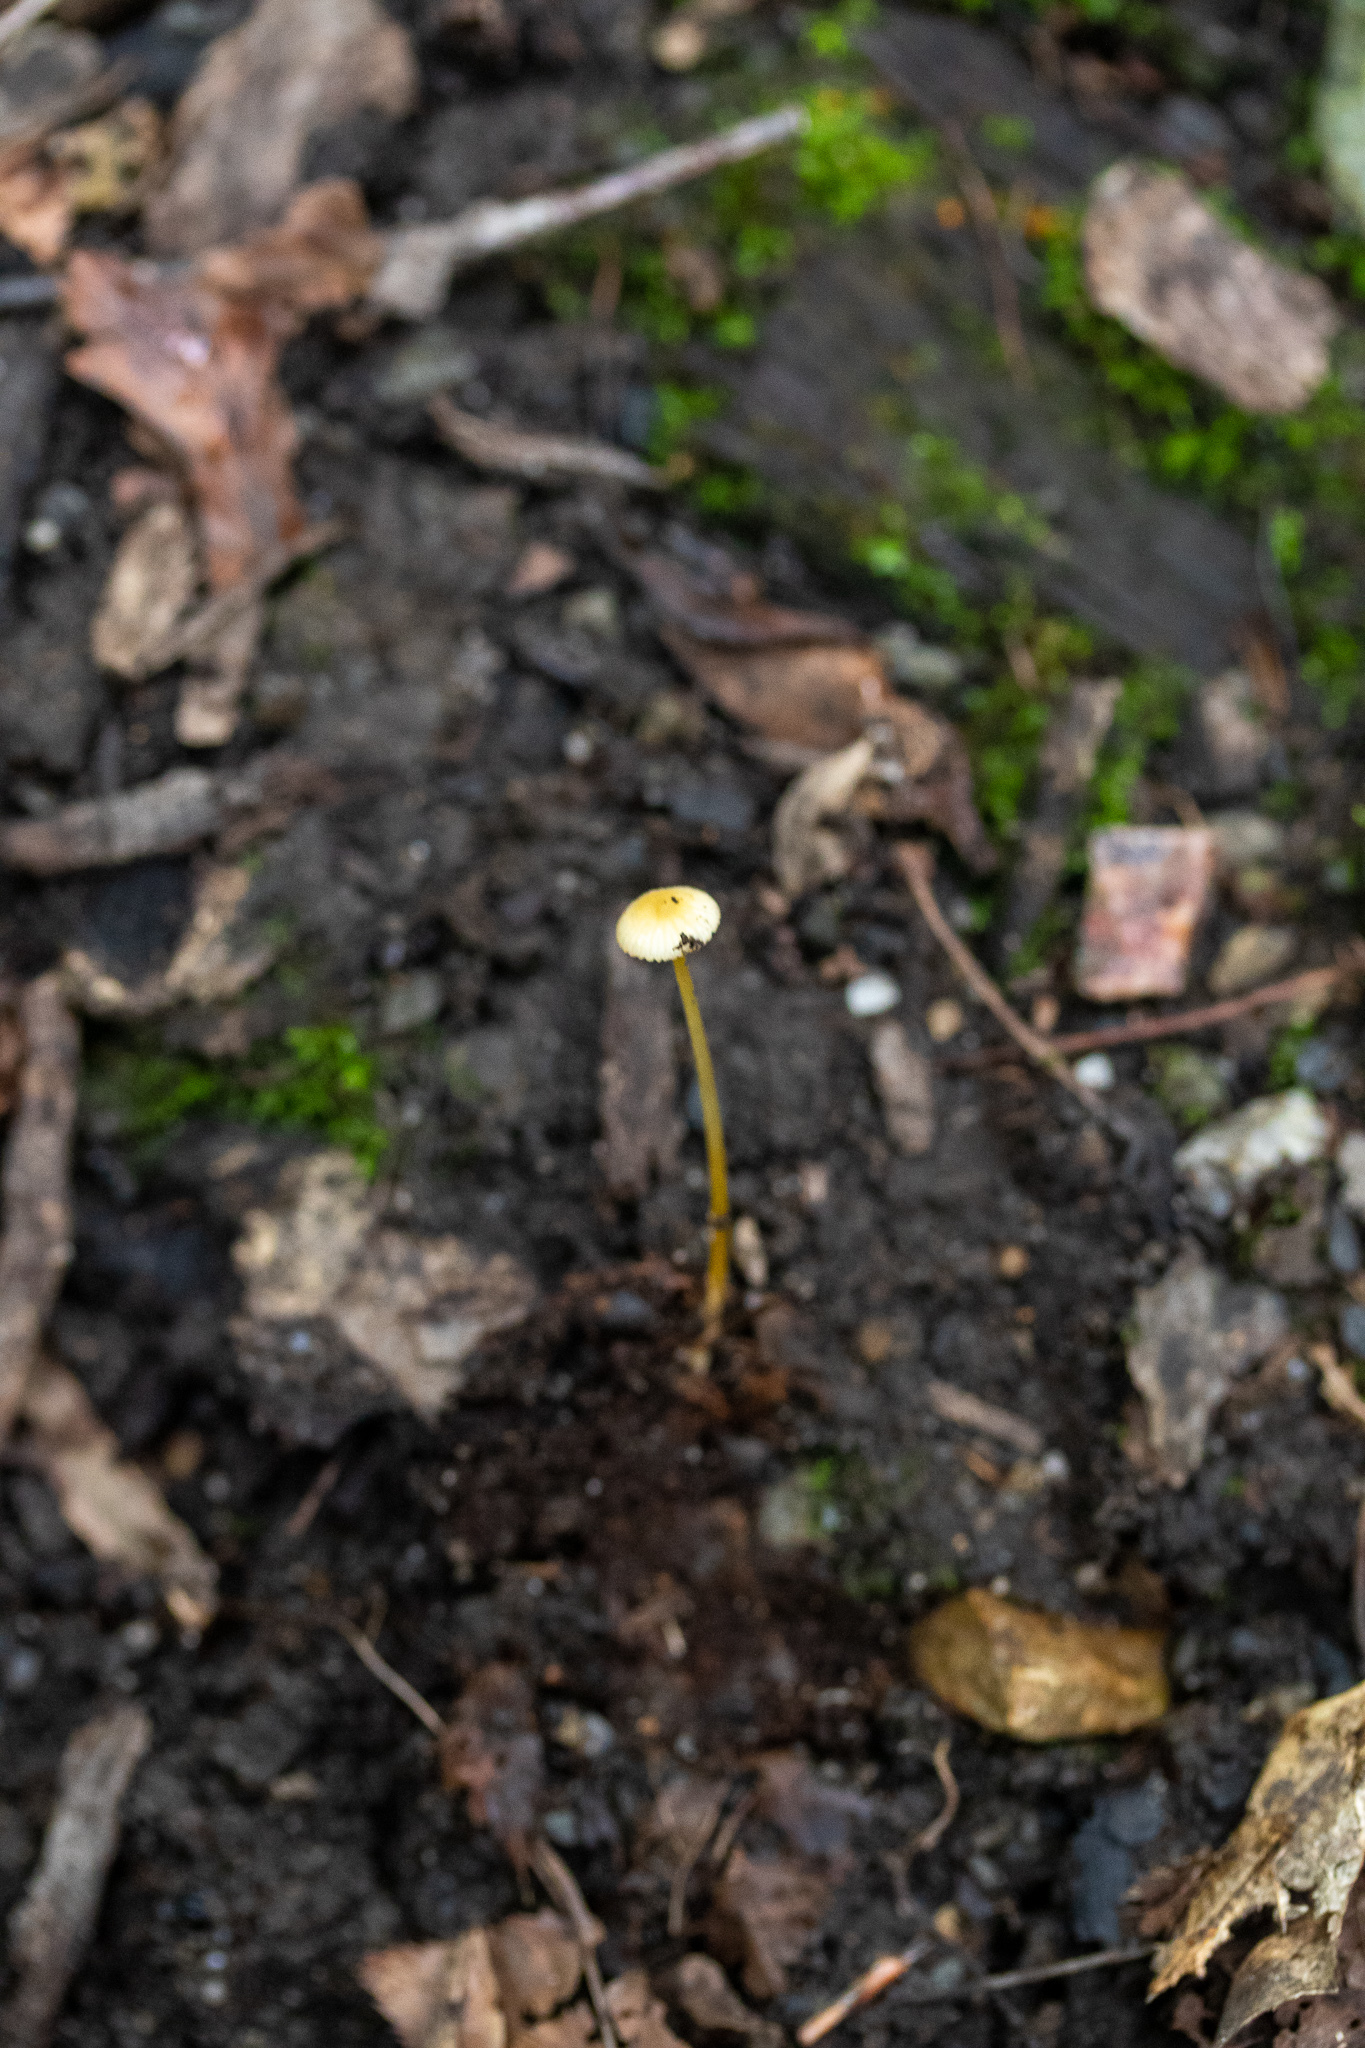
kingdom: Fungi
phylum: Basidiomycota
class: Agaricomycetes
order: Agaricales
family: Mycenaceae
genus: Mycena
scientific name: Mycena crocea
